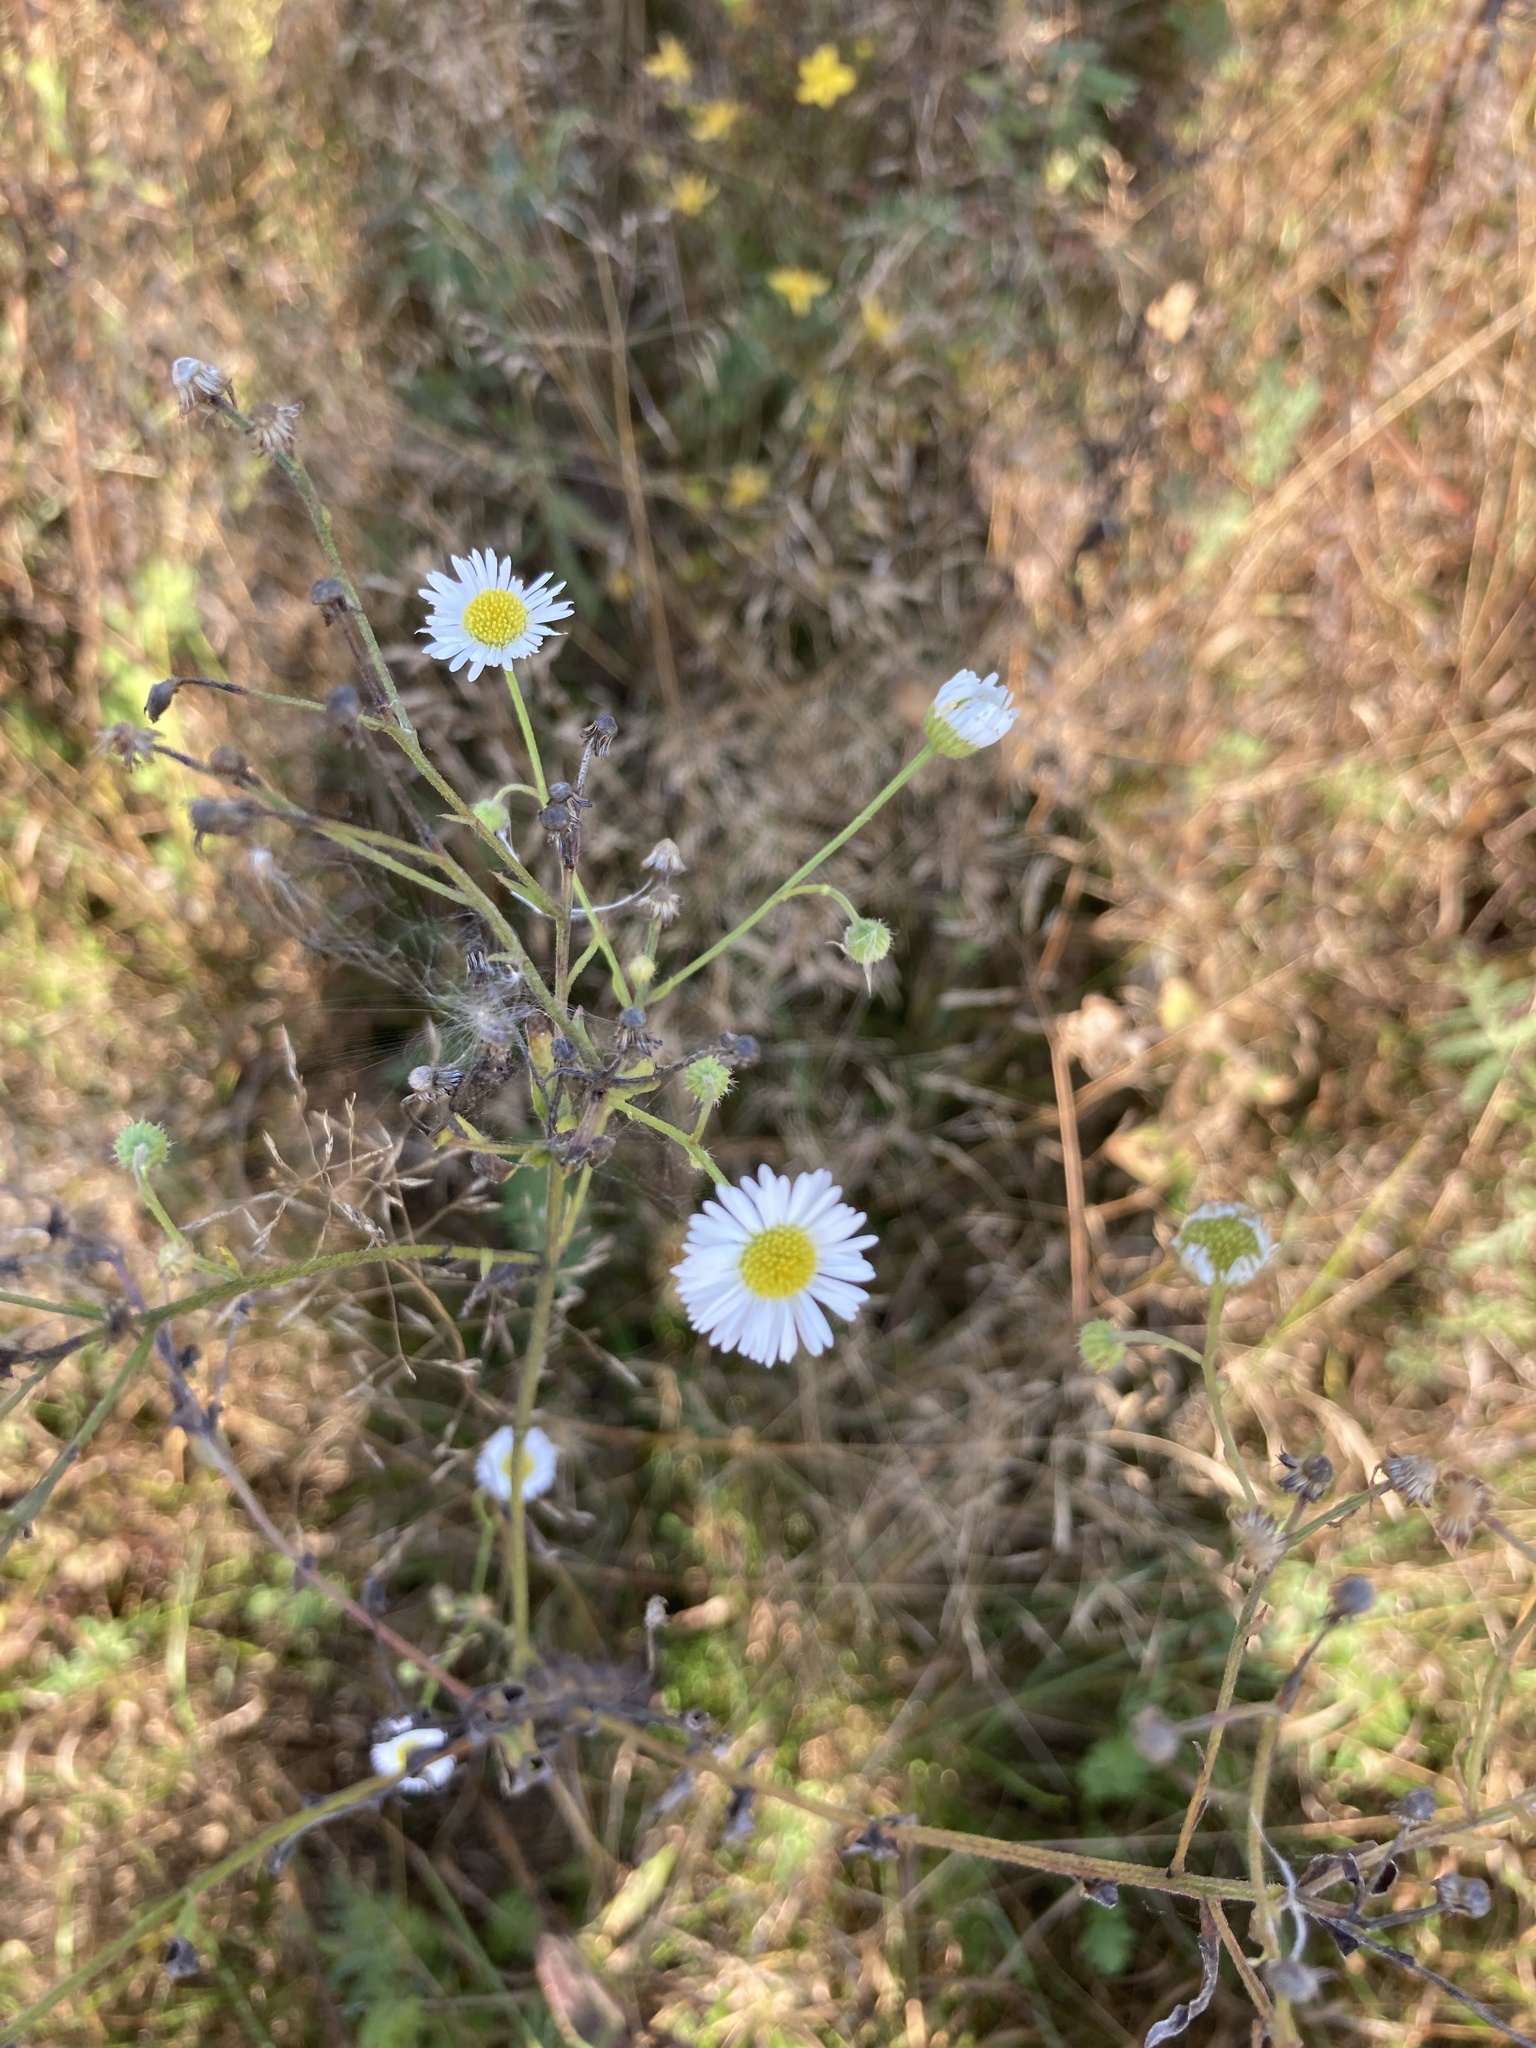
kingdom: Plantae
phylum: Tracheophyta
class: Magnoliopsida
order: Asterales
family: Asteraceae
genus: Erigeron
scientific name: Erigeron annuus
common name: Tall fleabane
